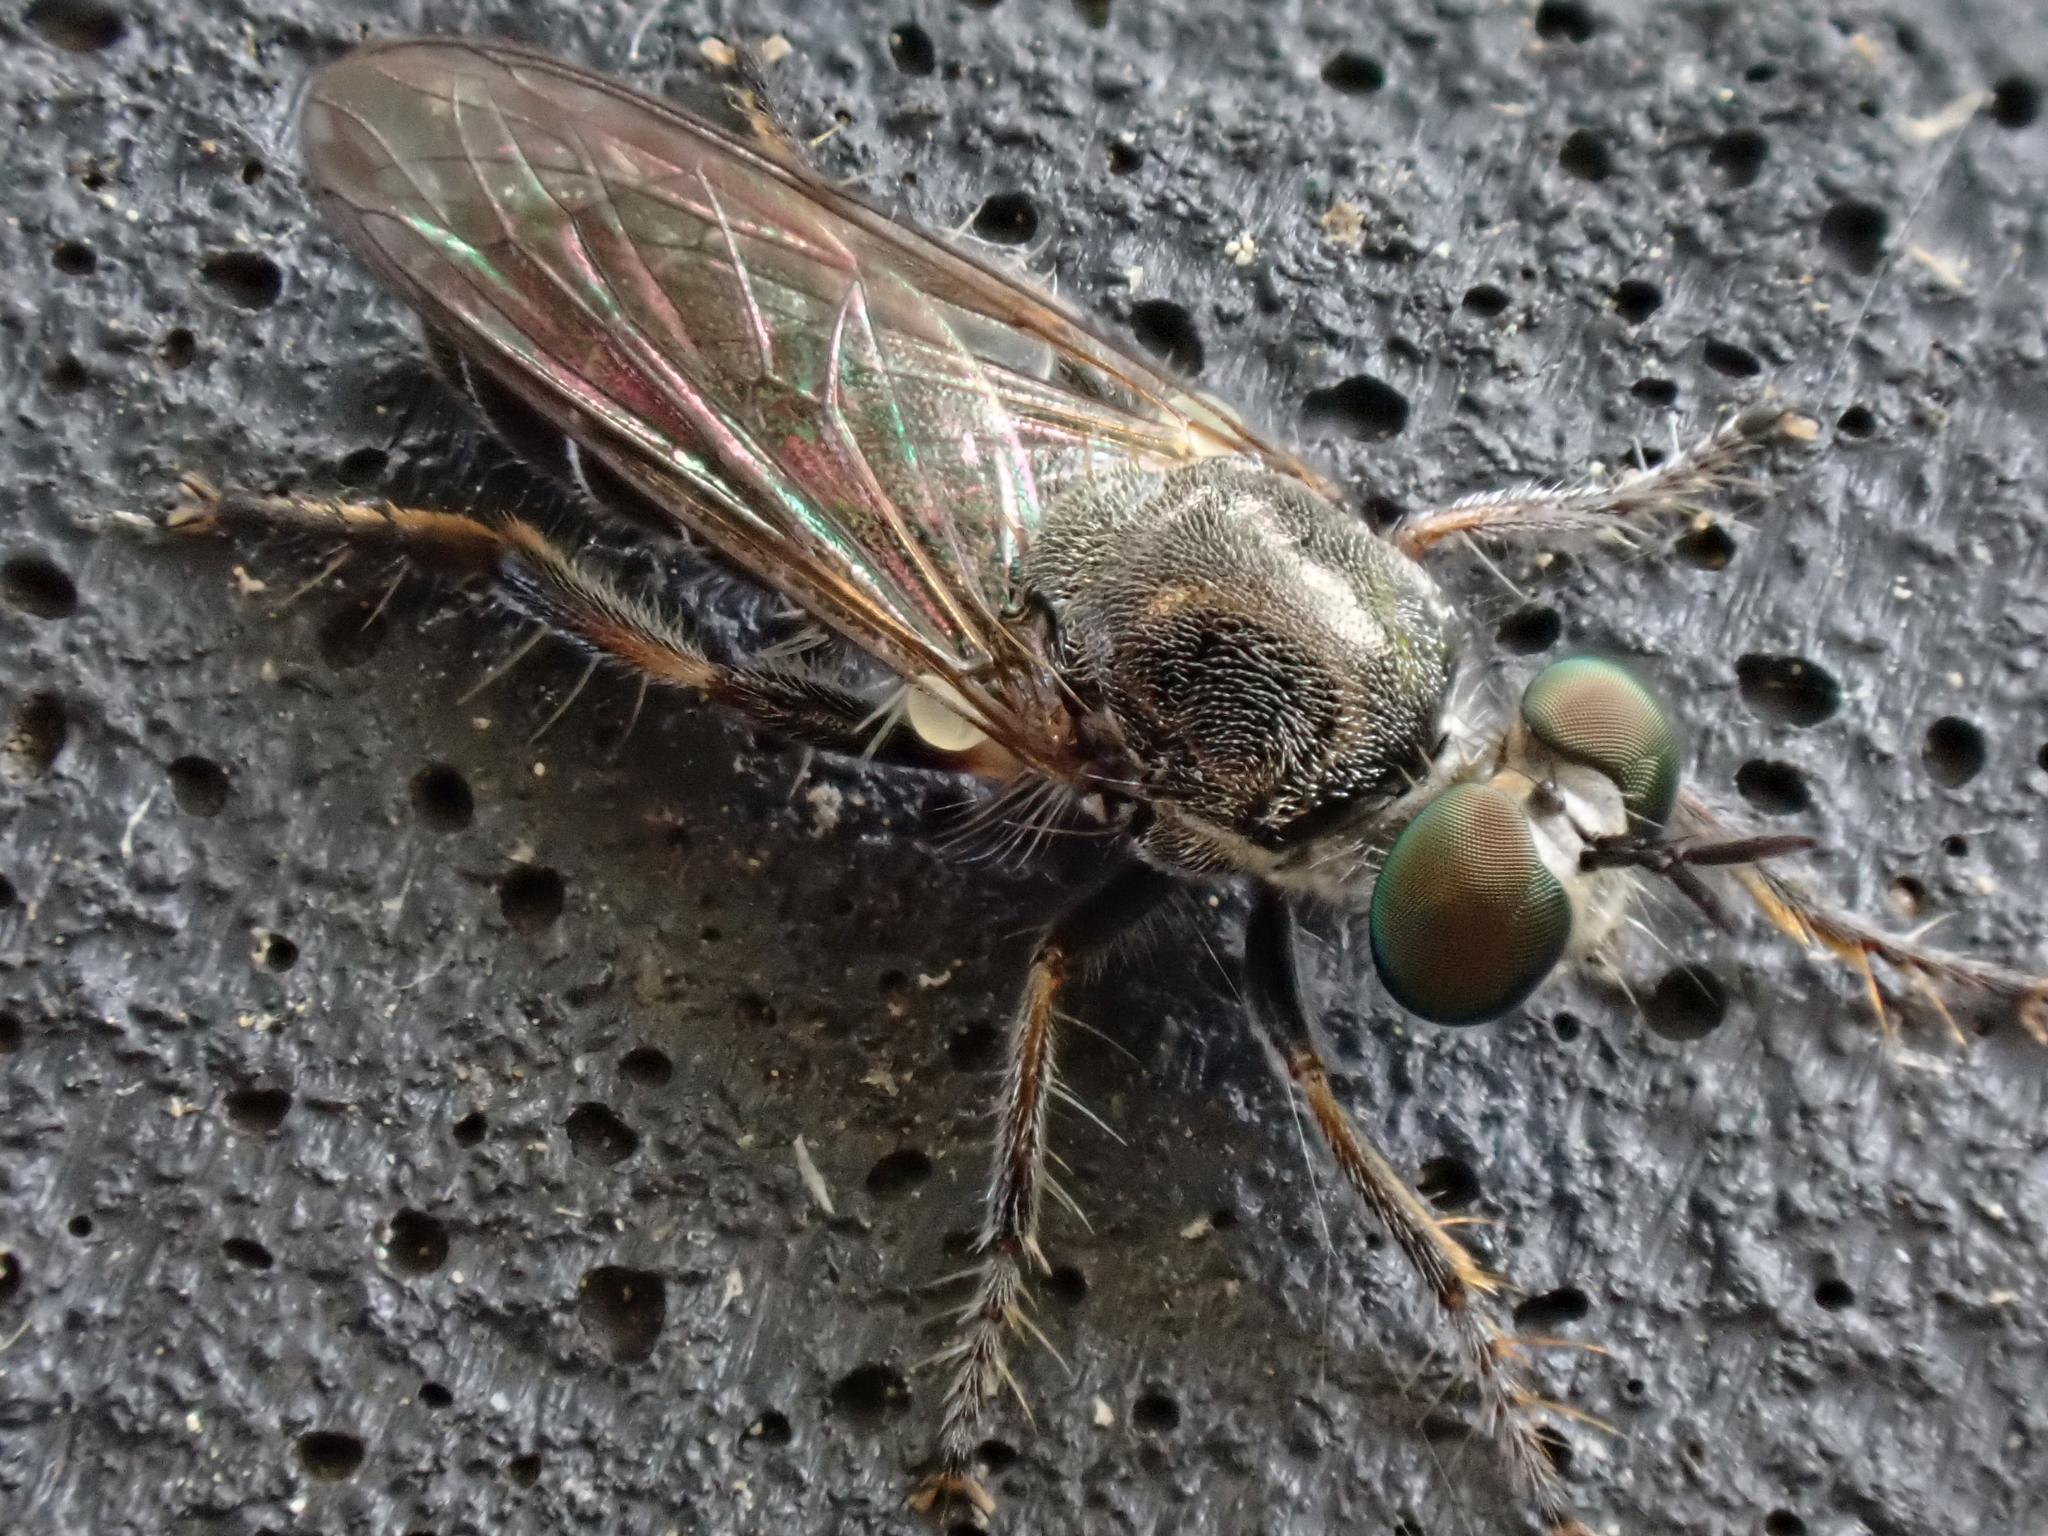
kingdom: Animalia
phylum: Arthropoda
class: Insecta
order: Diptera
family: Asilidae
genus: Atomosia
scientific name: Atomosia puella
